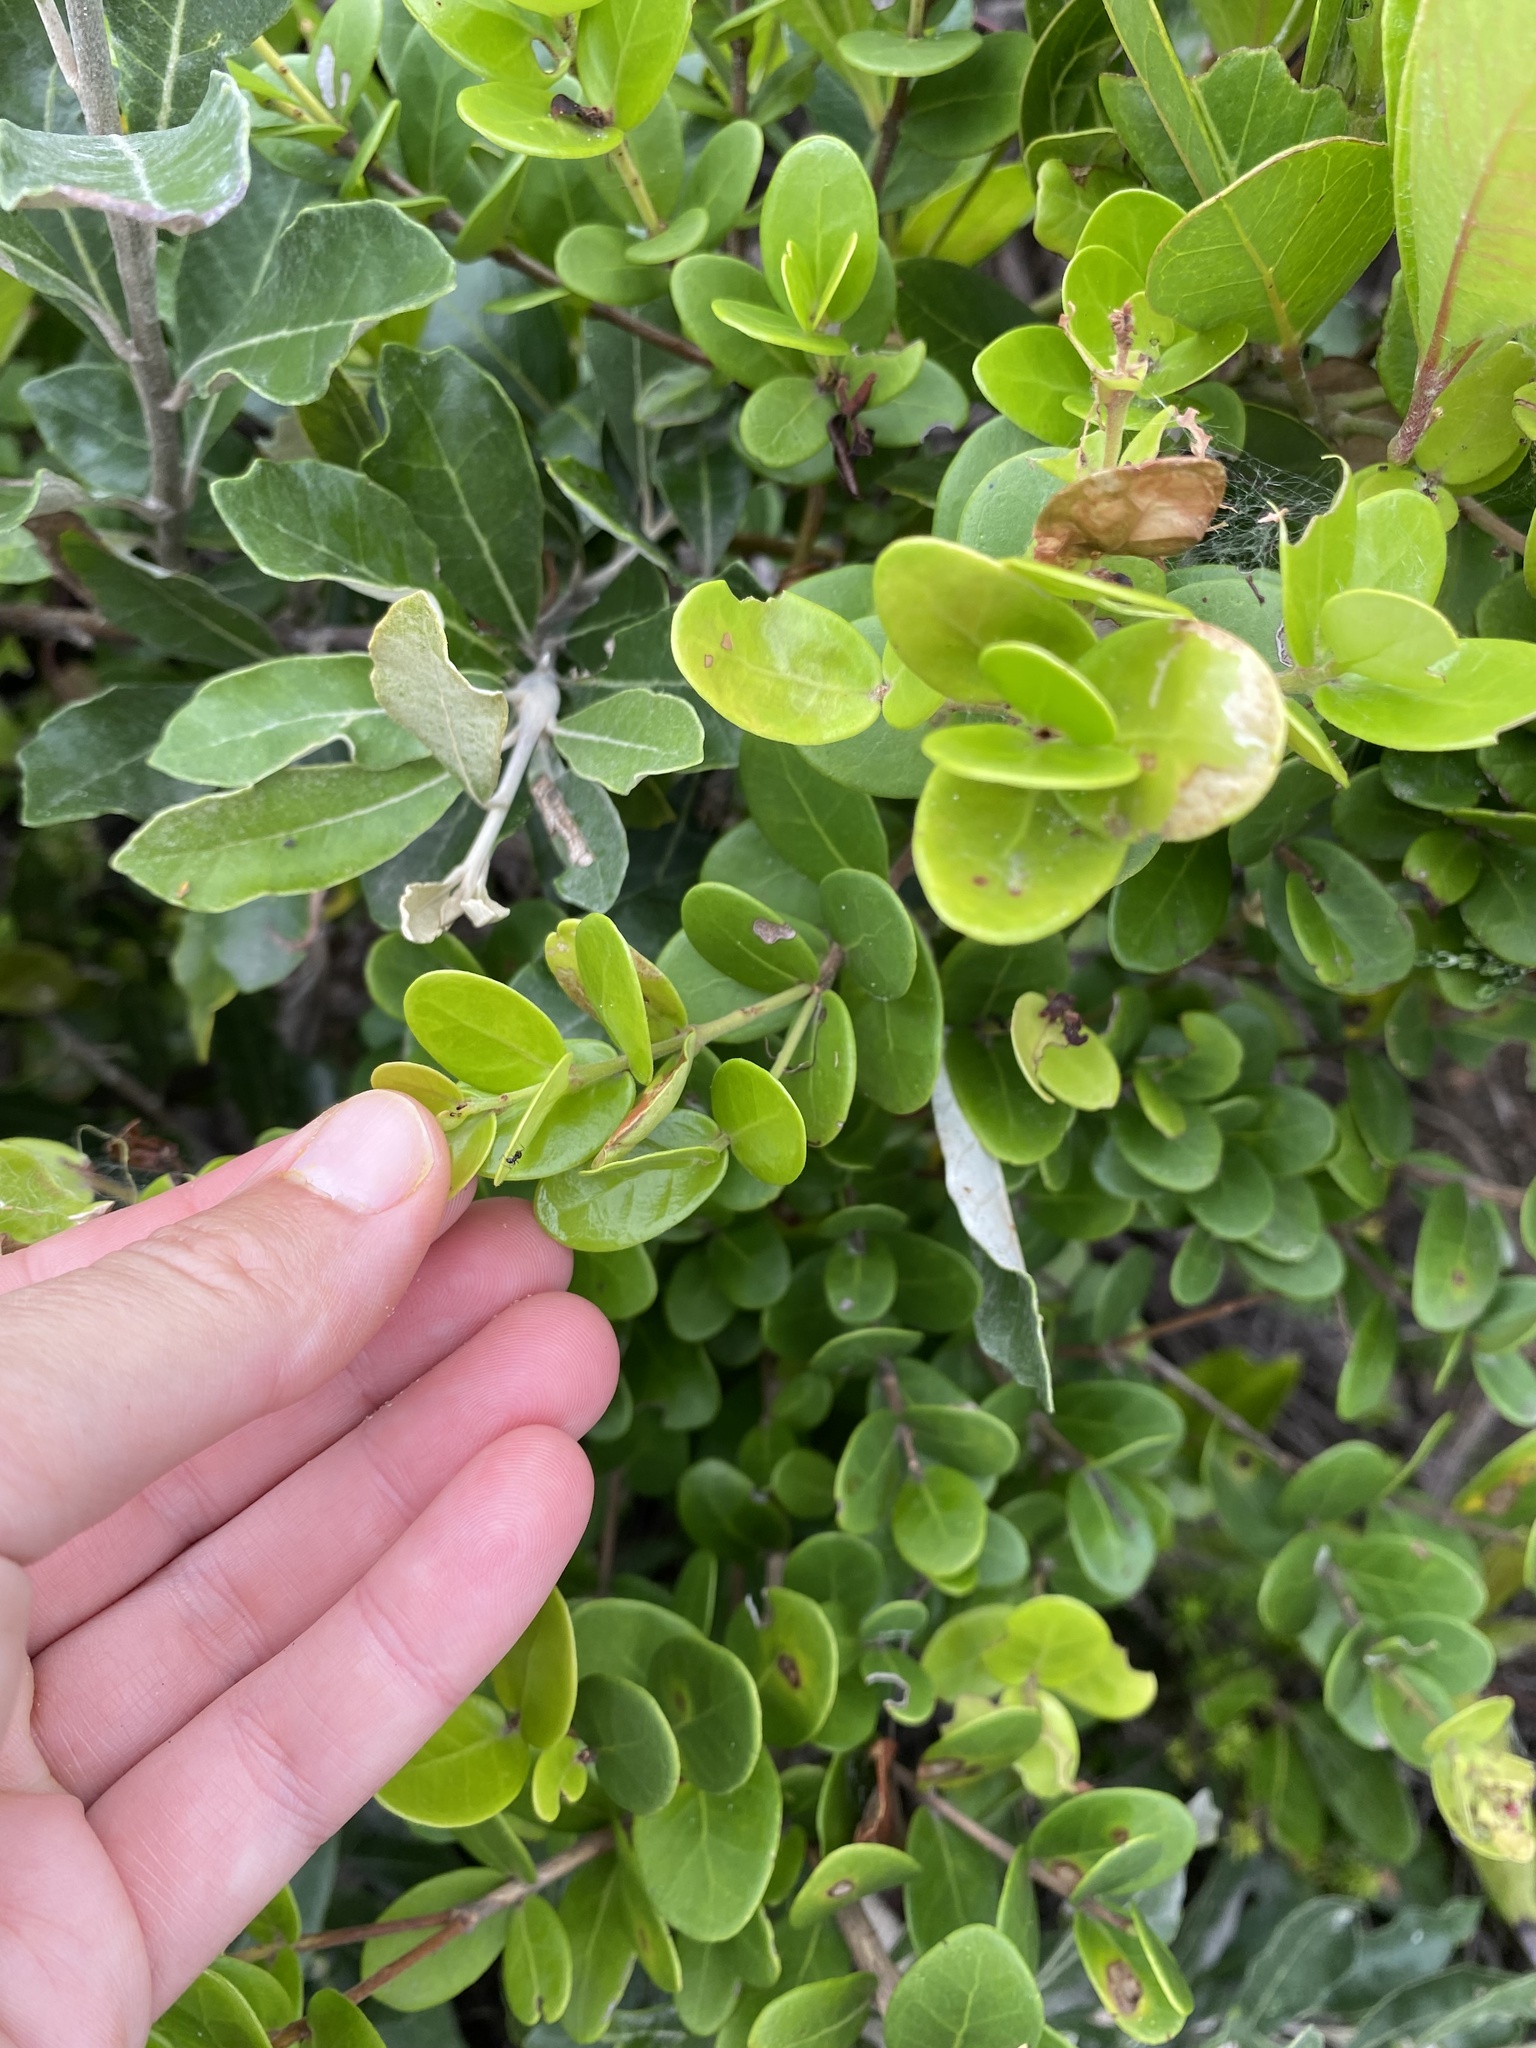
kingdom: Plantae
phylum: Tracheophyta
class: Magnoliopsida
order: Myrtales
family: Myrtaceae
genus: Eugenia
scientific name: Eugenia capensis
